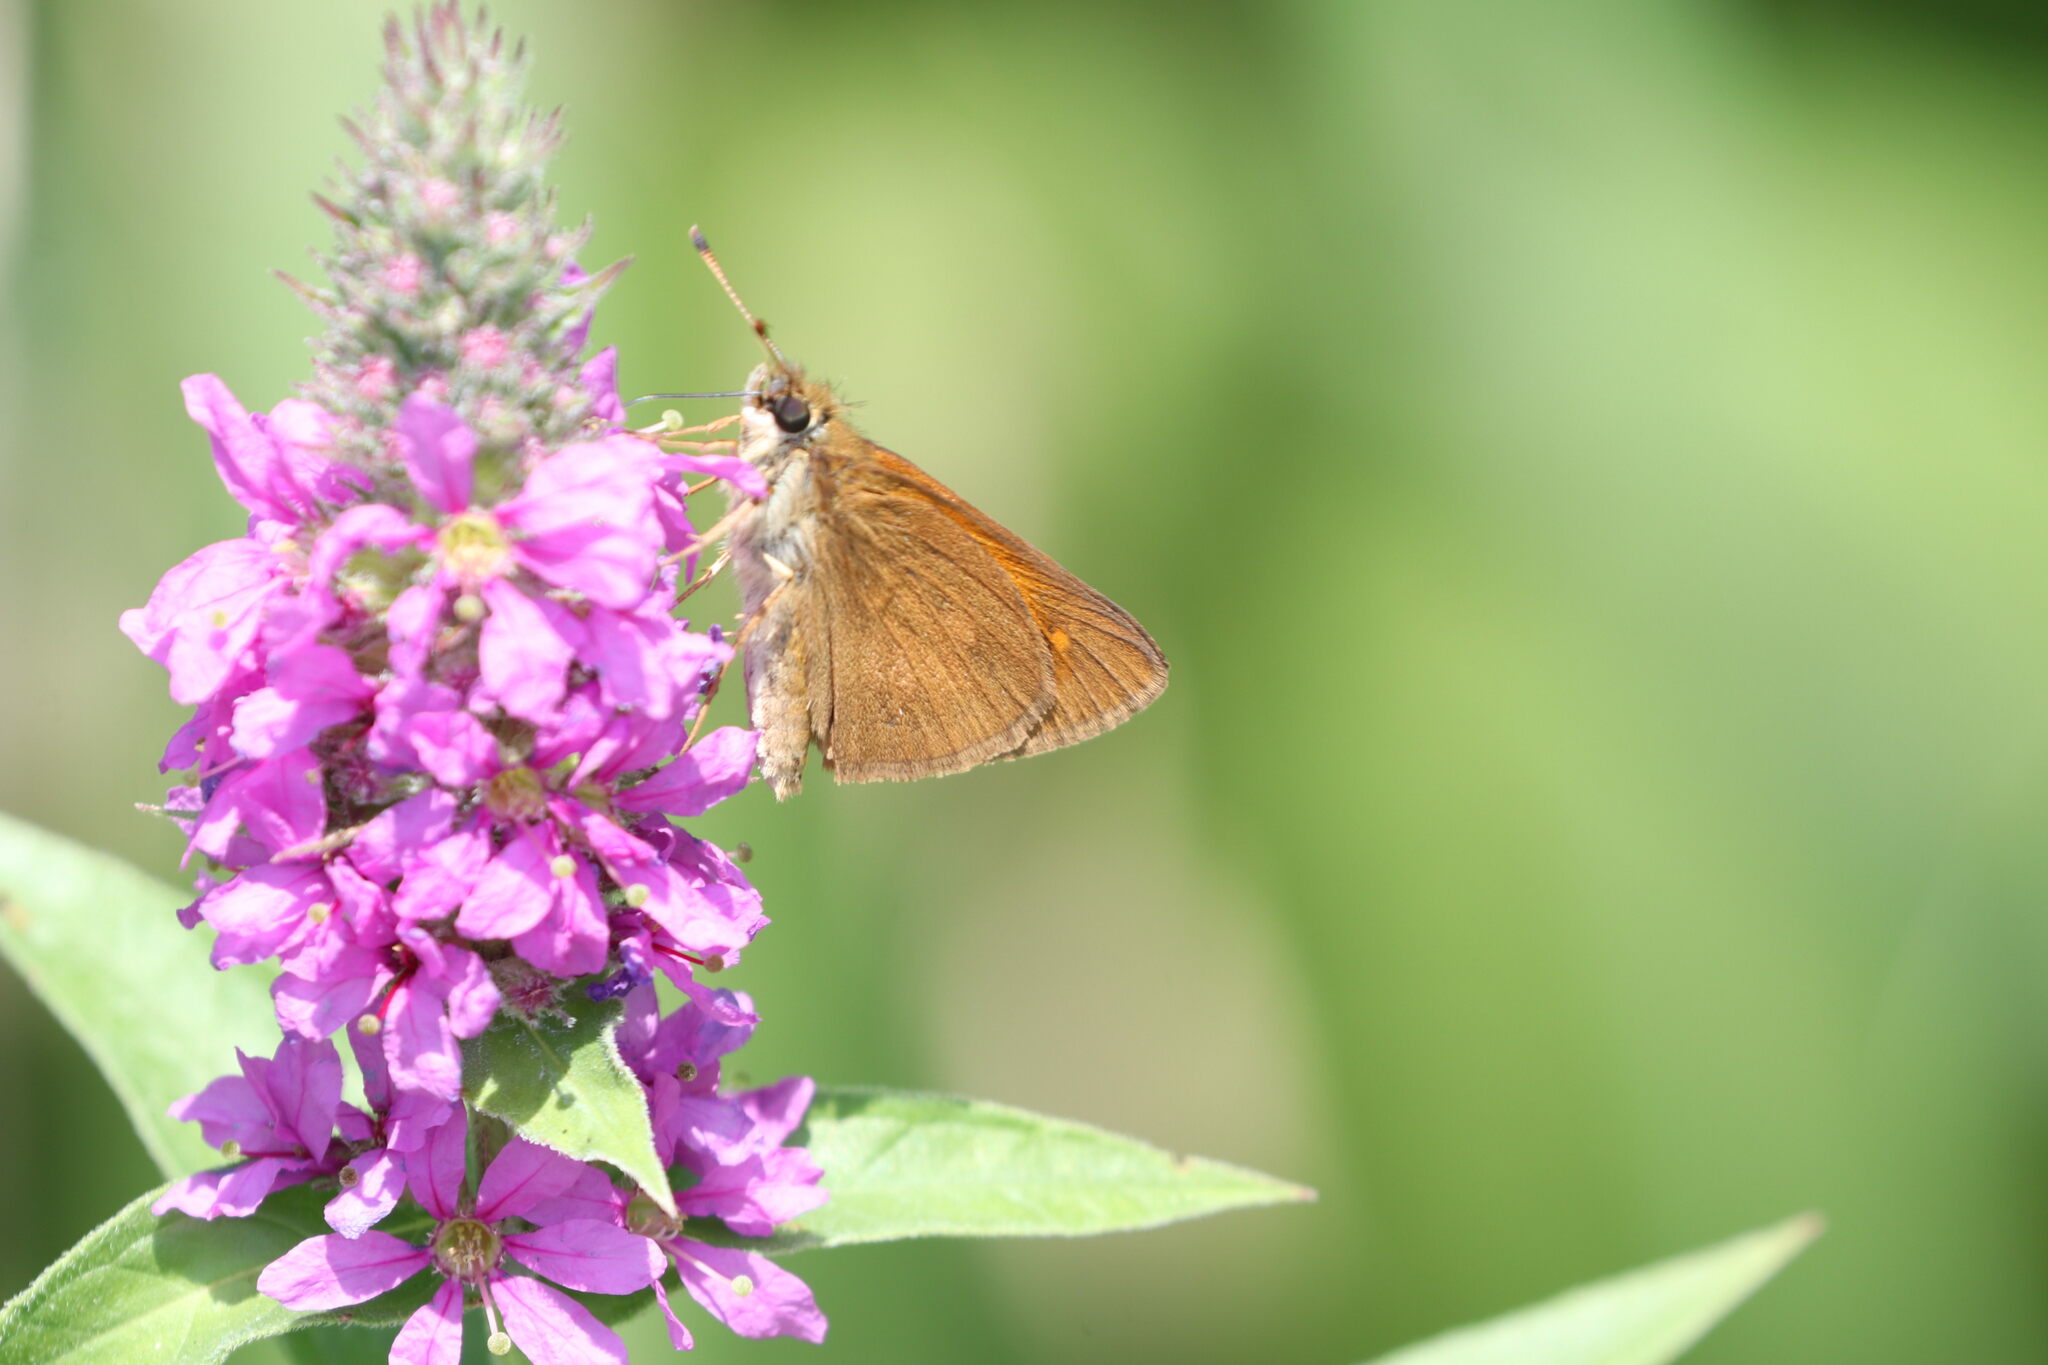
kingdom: Animalia
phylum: Arthropoda
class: Insecta
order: Lepidoptera
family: Hesperiidae
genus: Poanes
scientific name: Poanes viator
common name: Broad-winged skipper
